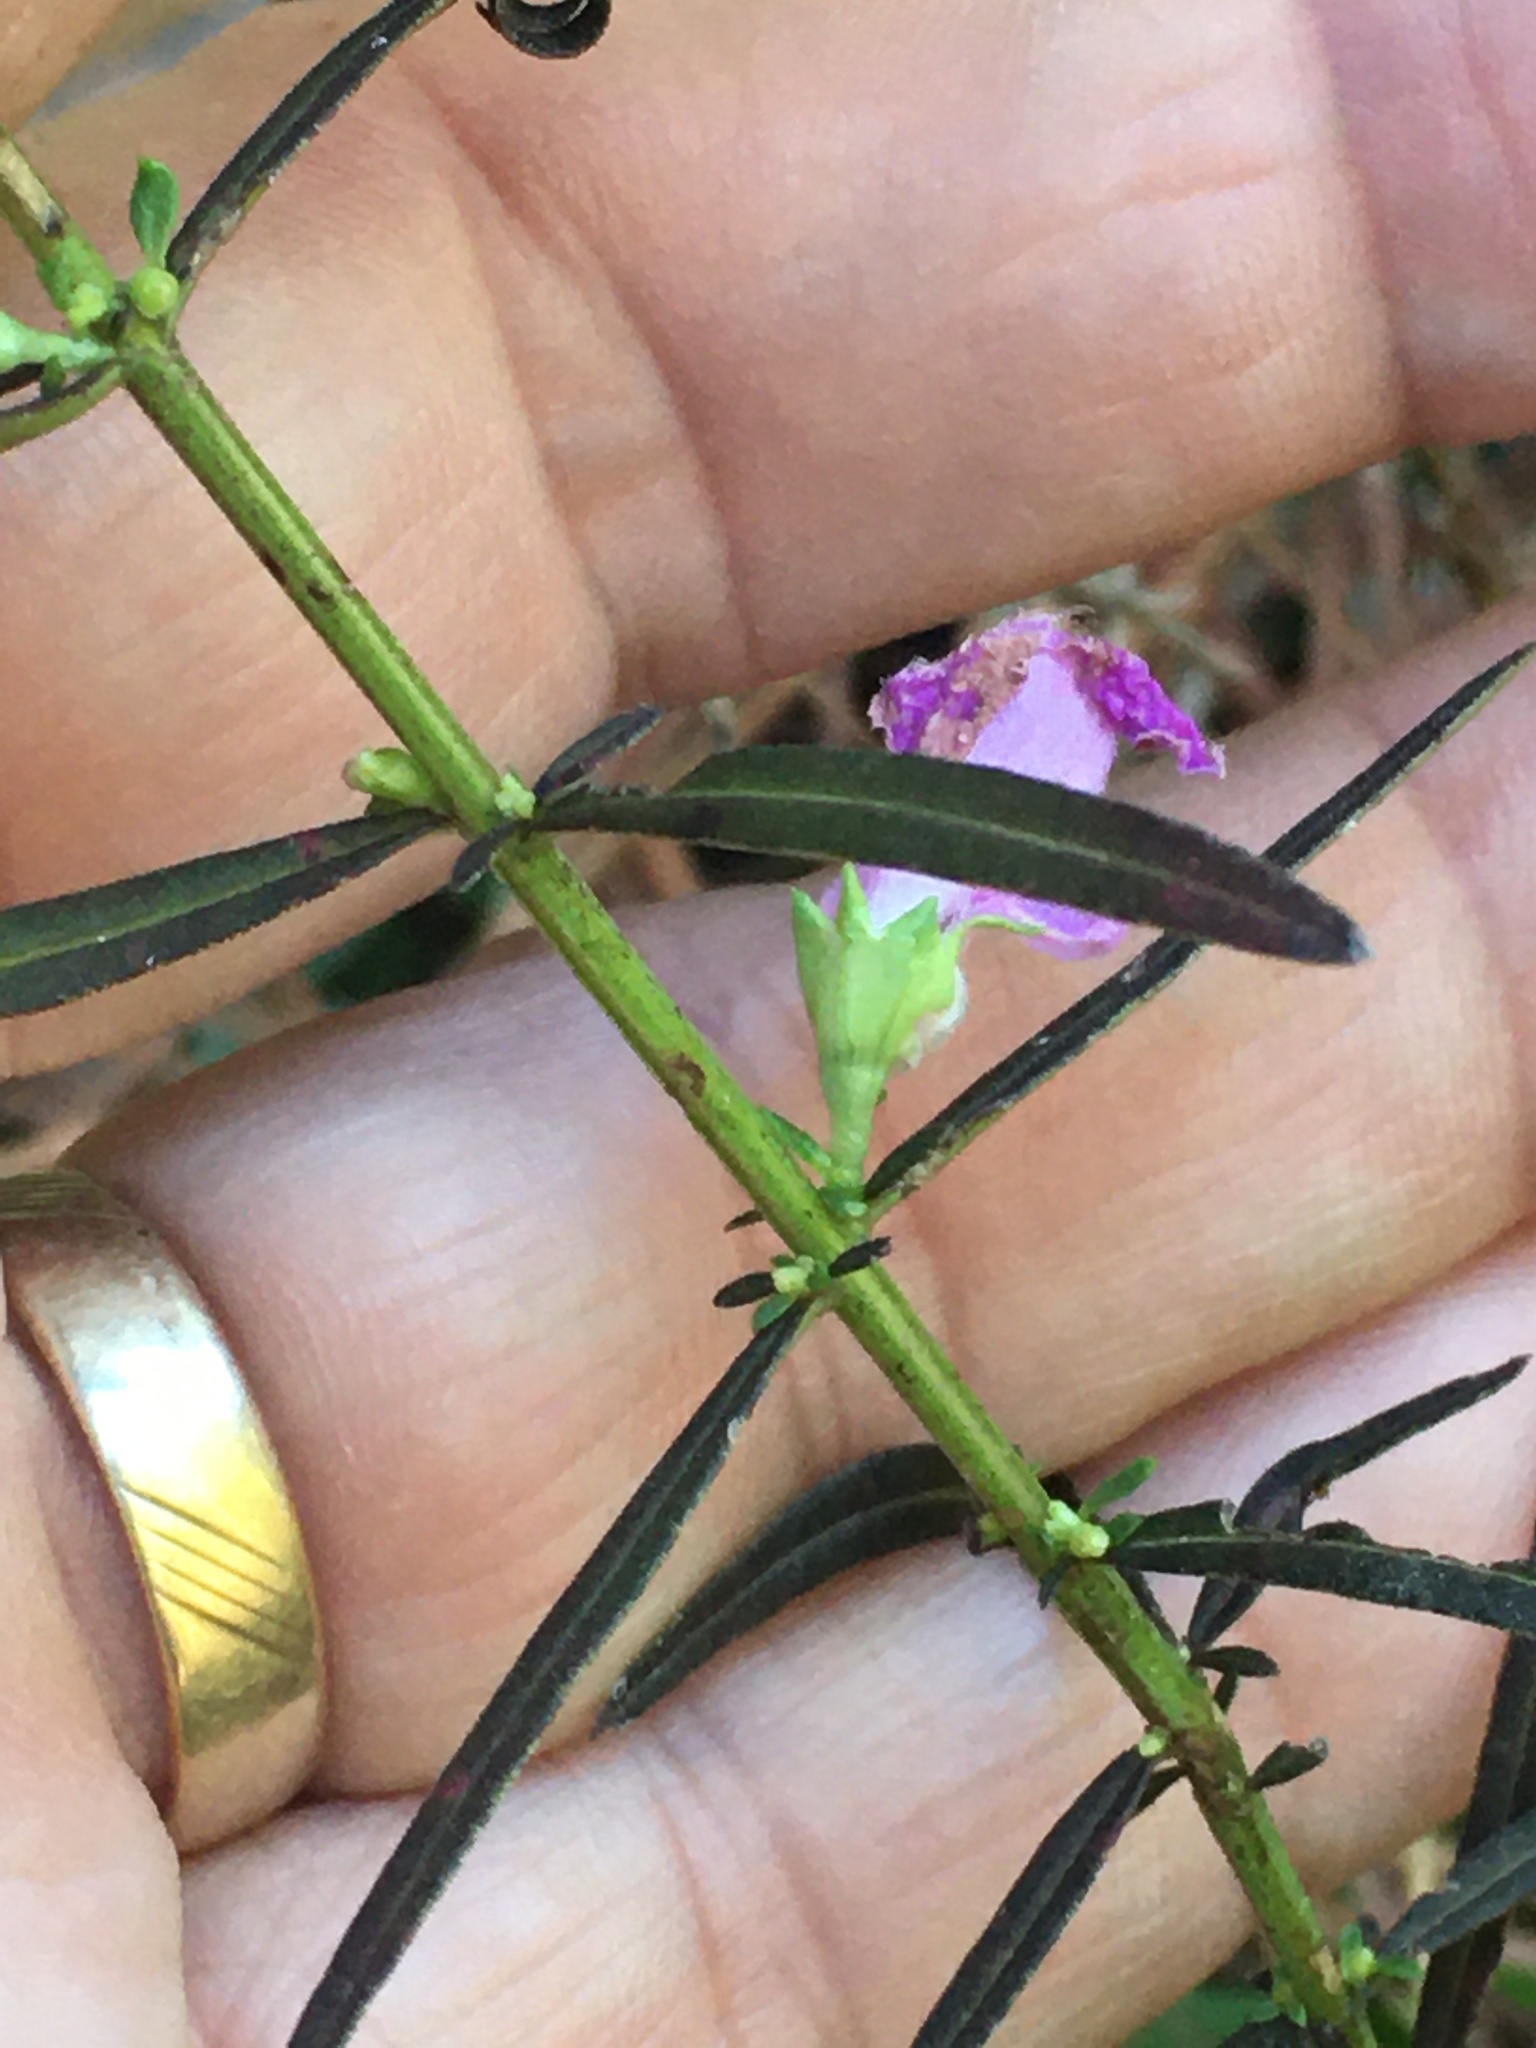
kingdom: Plantae
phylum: Tracheophyta
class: Magnoliopsida
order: Lamiales
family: Orobanchaceae
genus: Agalinis
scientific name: Agalinis purpurea
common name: Purple false foxglove
